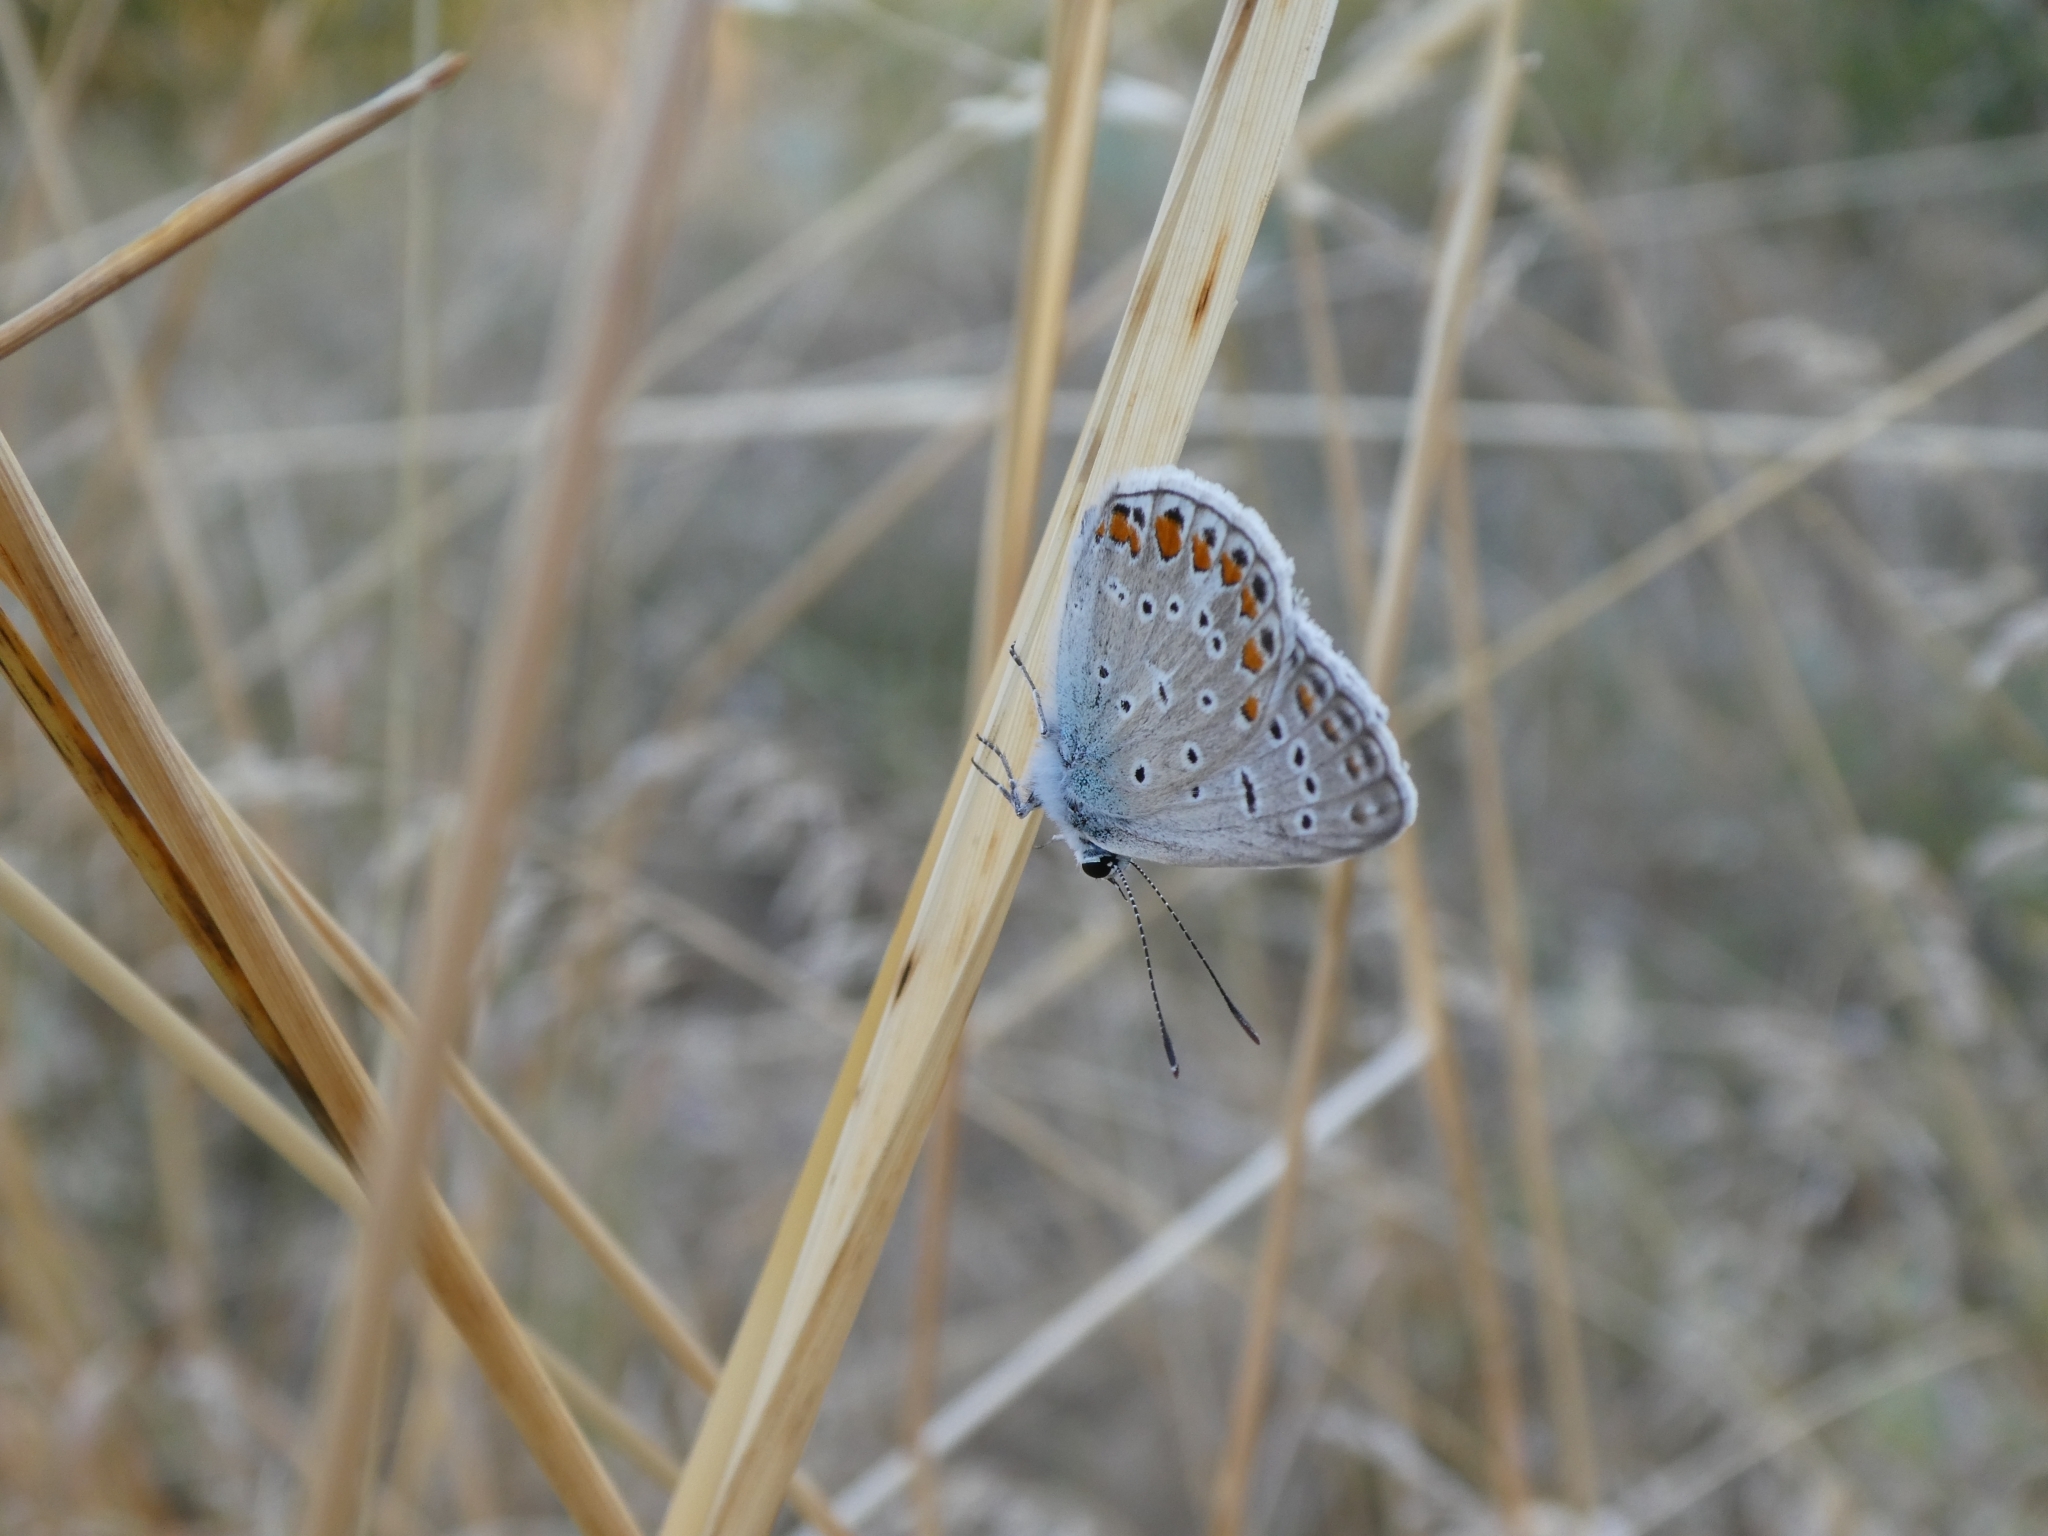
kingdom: Animalia
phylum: Arthropoda
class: Insecta
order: Lepidoptera
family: Lycaenidae
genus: Polyommatus
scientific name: Polyommatus icarus
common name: Common blue
